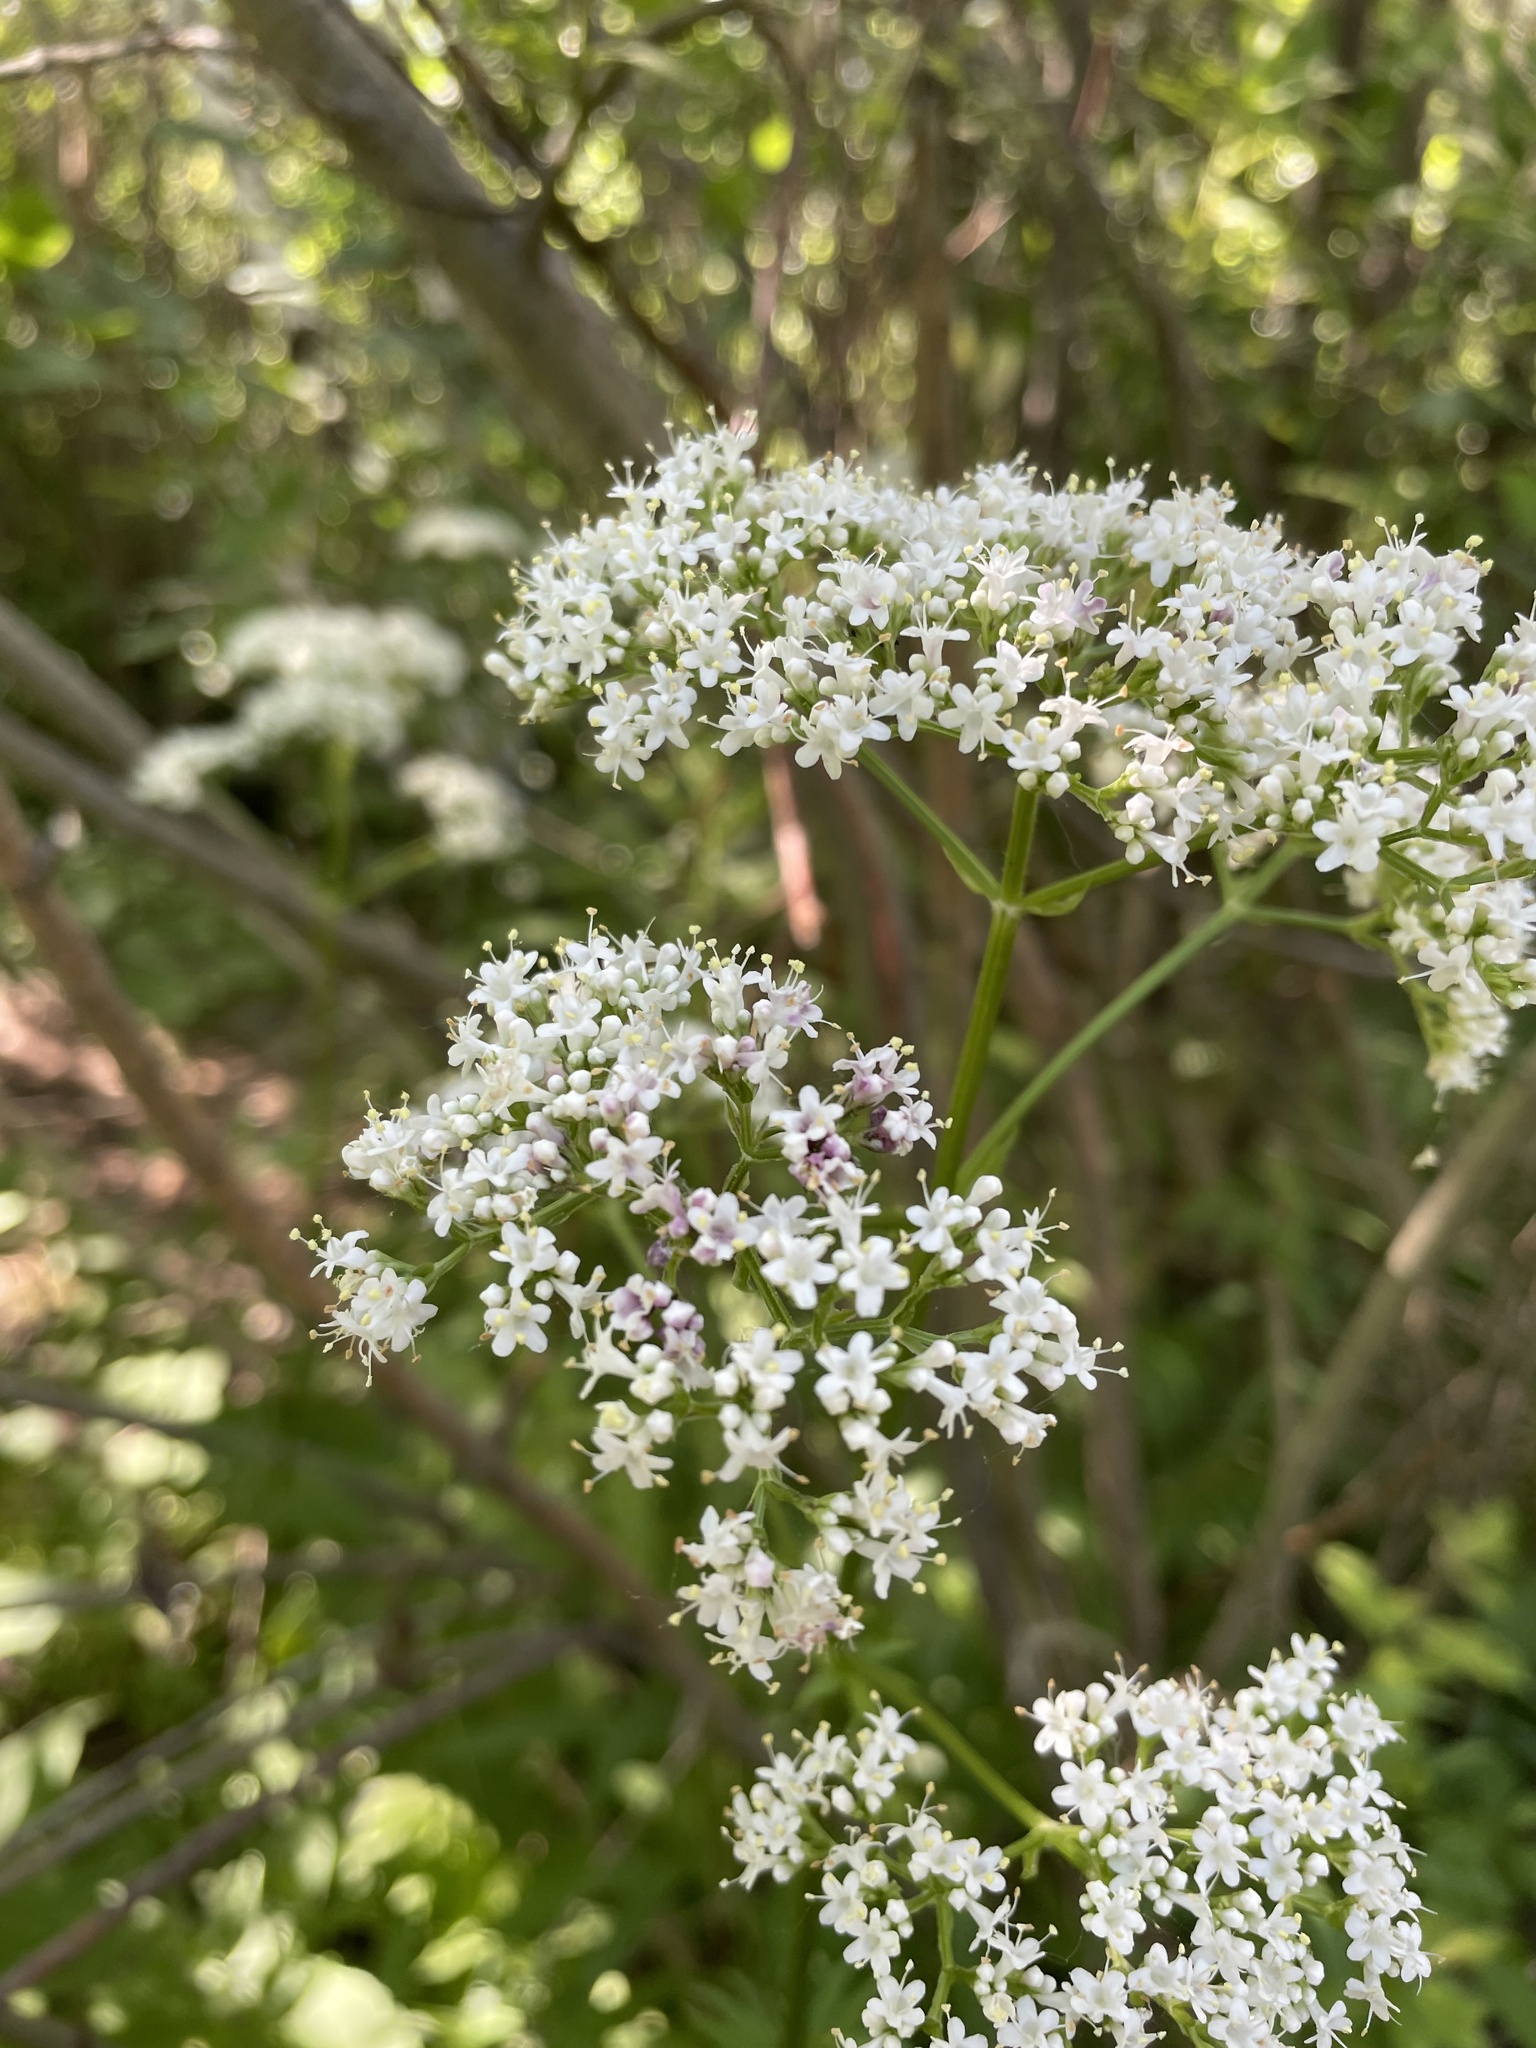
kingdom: Plantae
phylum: Tracheophyta
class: Magnoliopsida
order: Dipsacales
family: Caprifoliaceae
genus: Valeriana
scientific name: Valeriana officinalis
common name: Common valerian
